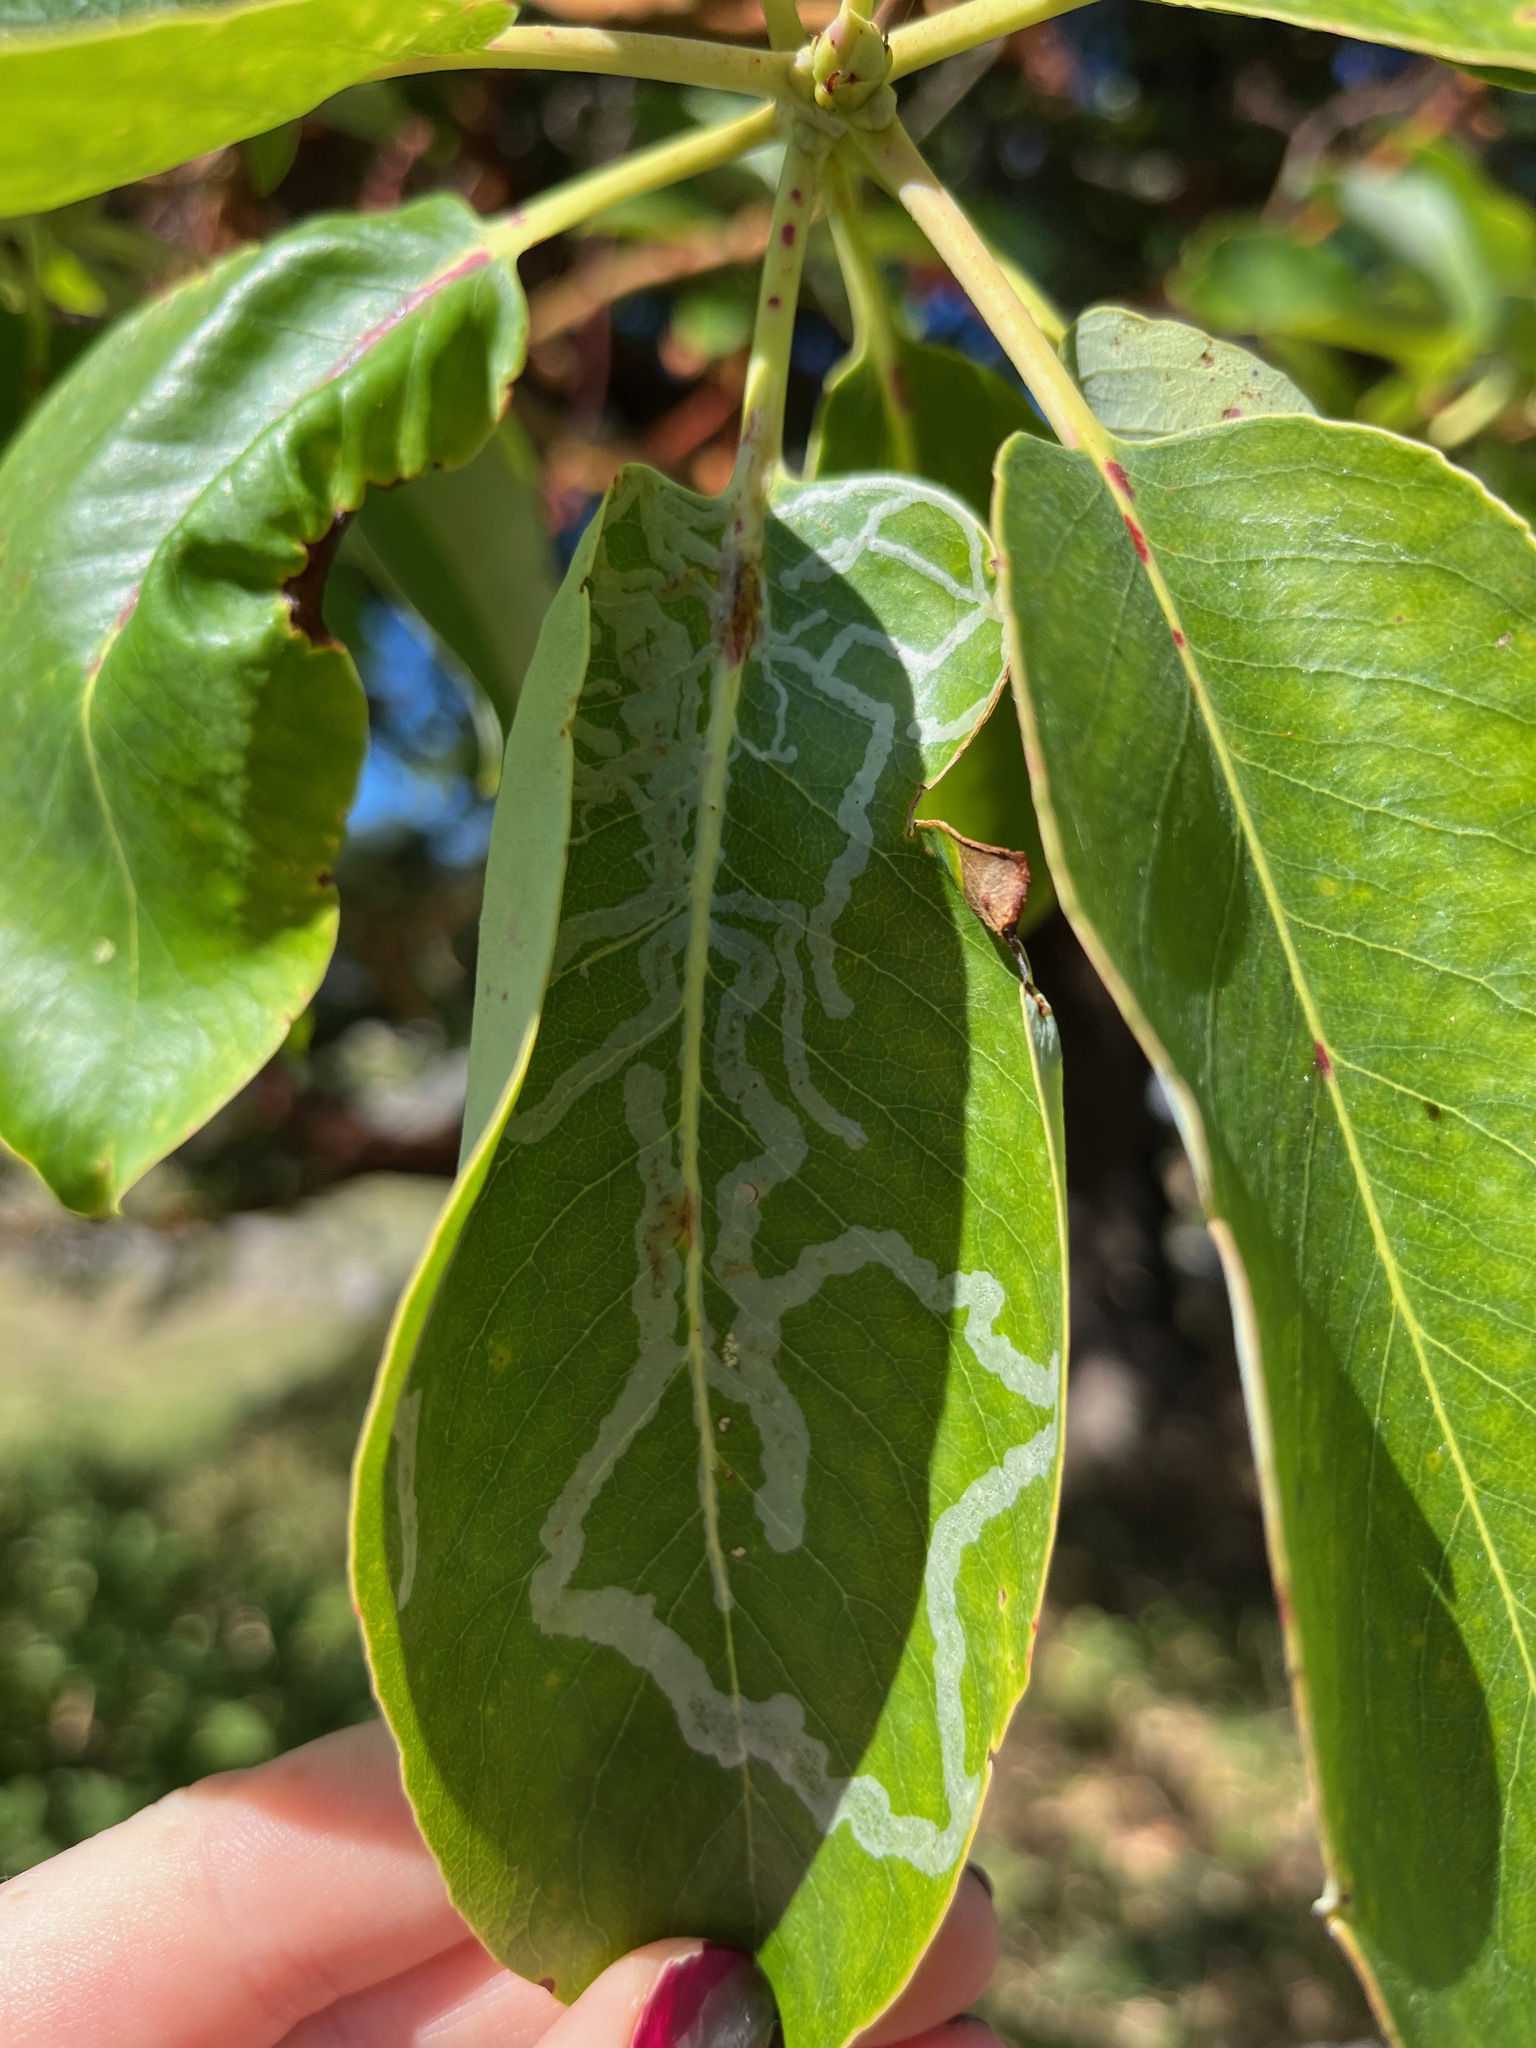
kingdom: Animalia
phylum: Arthropoda
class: Insecta
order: Lepidoptera
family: Gracillariidae
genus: Marmara
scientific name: Marmara arbutiella
